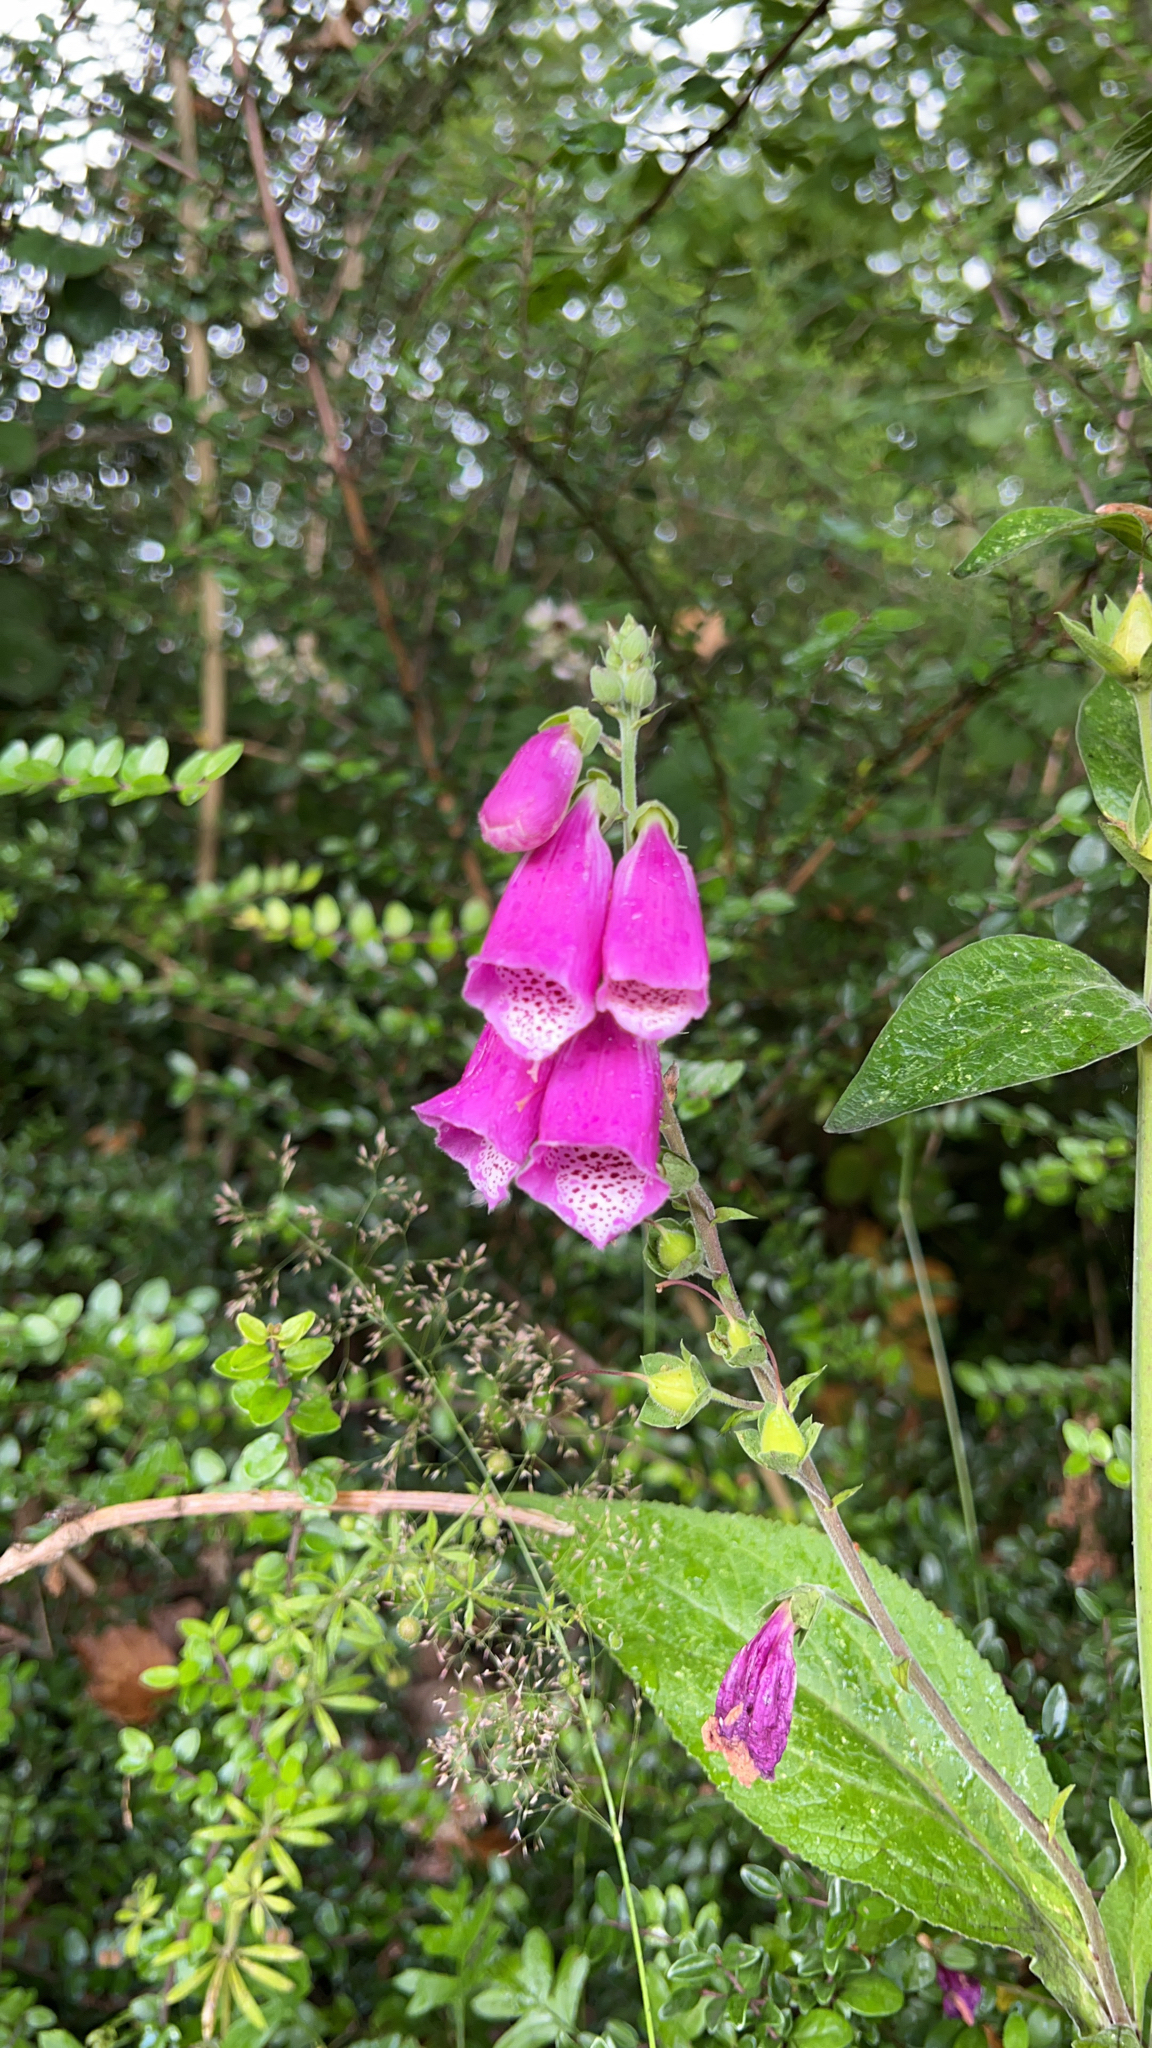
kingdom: Plantae
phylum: Tracheophyta
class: Magnoliopsida
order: Lamiales
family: Plantaginaceae
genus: Digitalis
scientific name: Digitalis purpurea
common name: Foxglove
